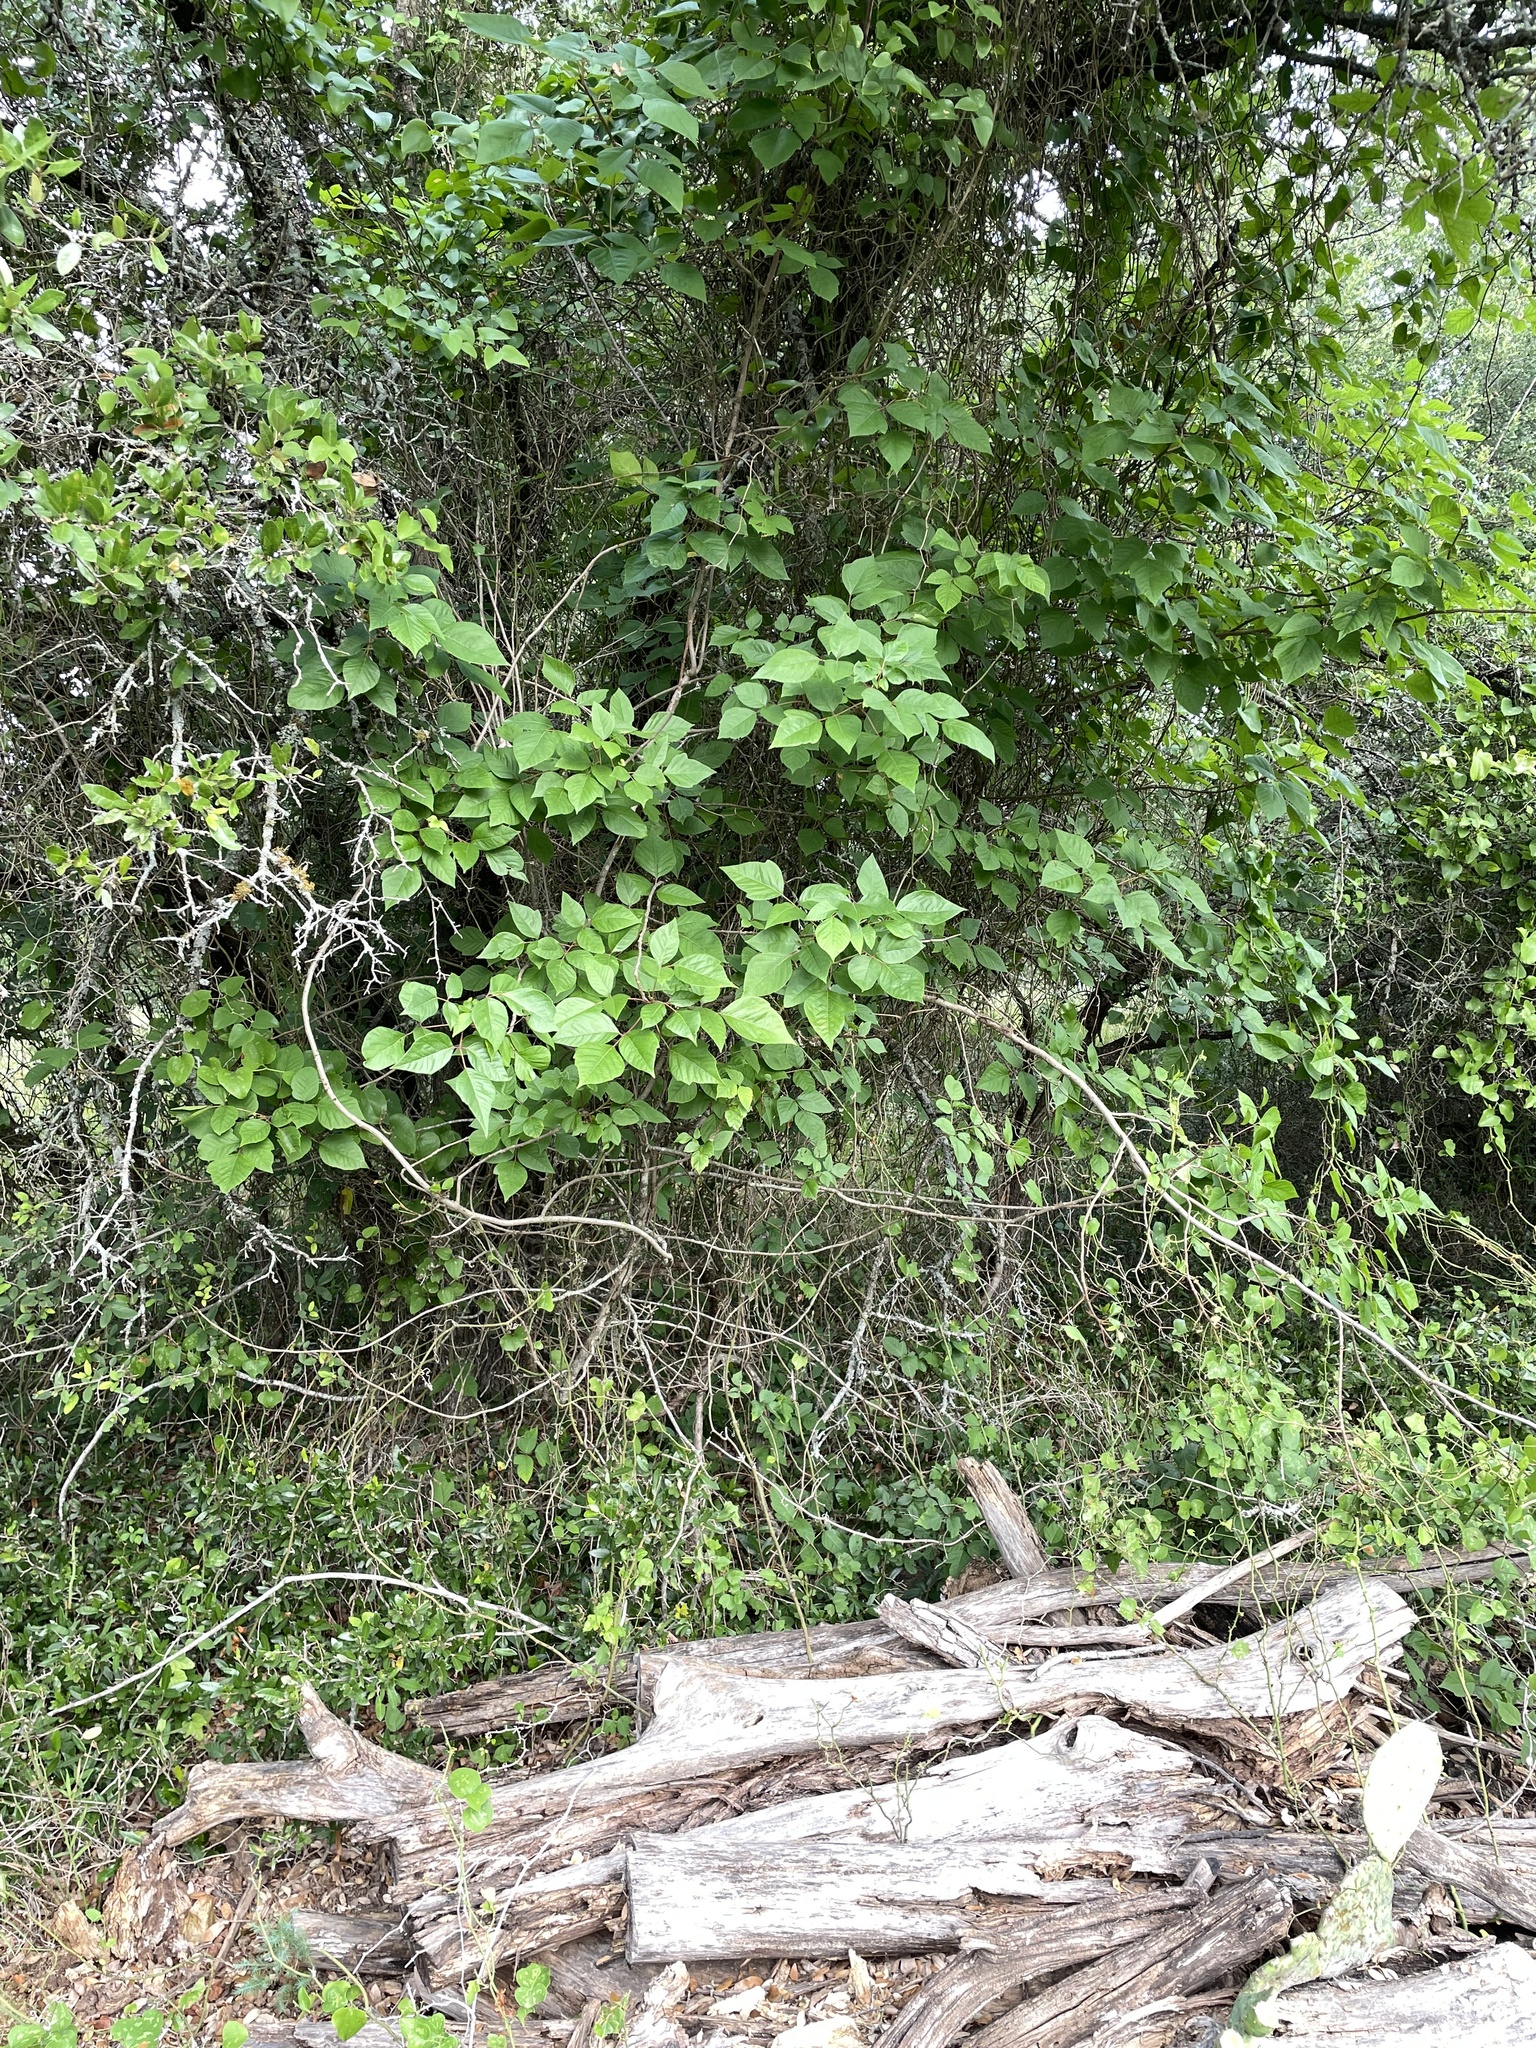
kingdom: Plantae
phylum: Tracheophyta
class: Magnoliopsida
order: Sapindales
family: Anacardiaceae
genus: Toxicodendron
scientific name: Toxicodendron radicans
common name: Poison ivy
